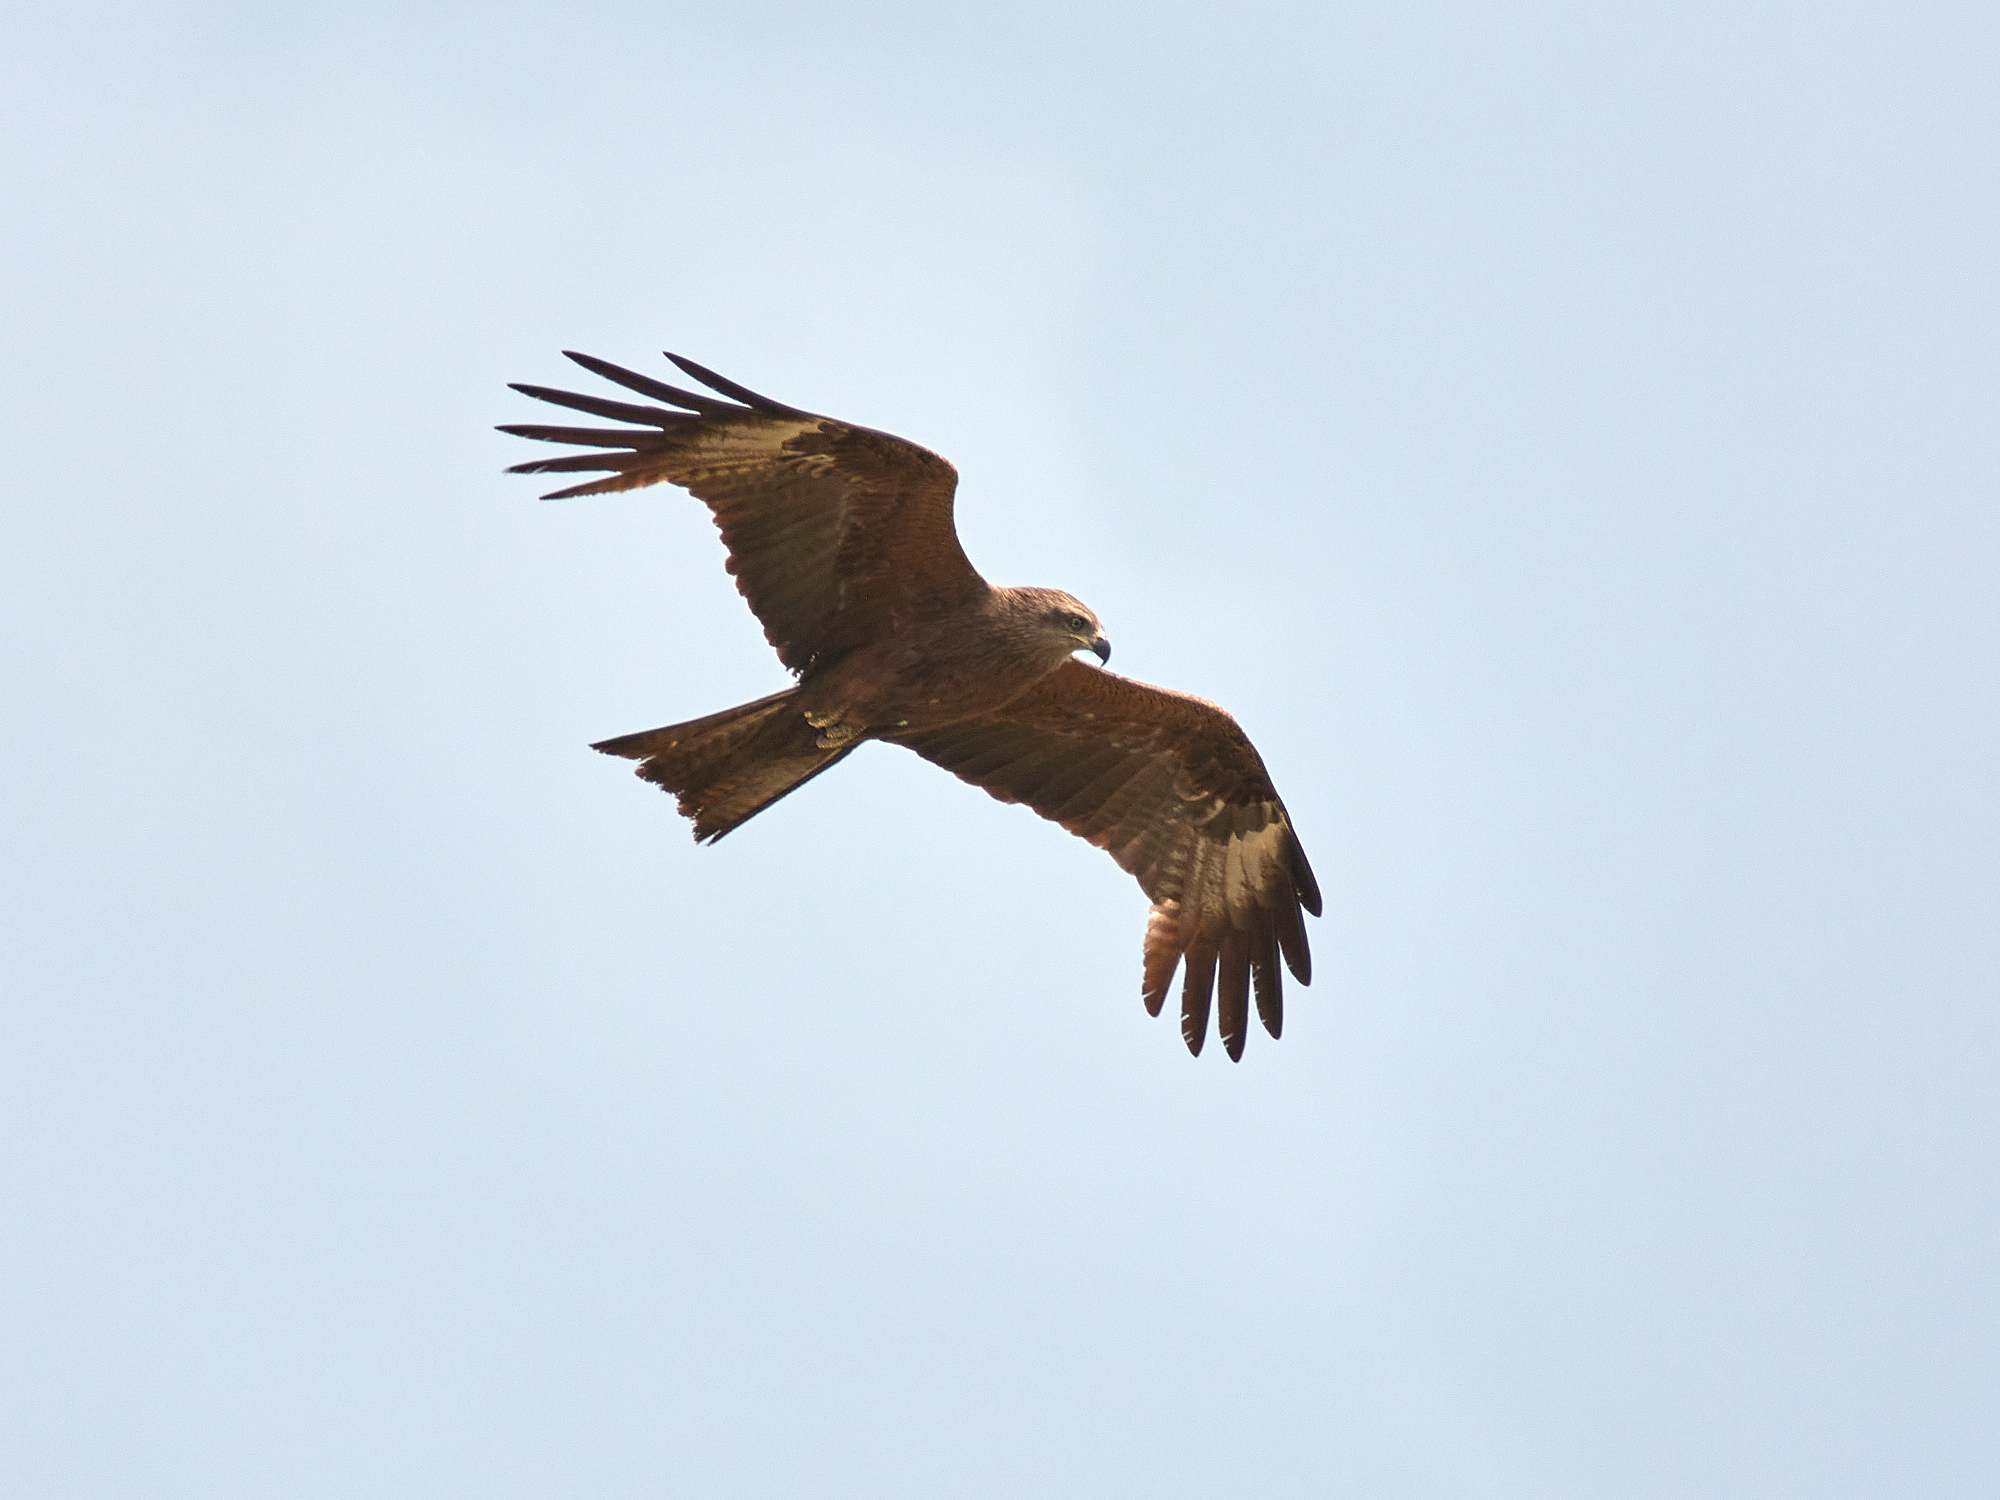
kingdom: Animalia
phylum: Chordata
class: Aves
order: Accipitriformes
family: Accipitridae
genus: Milvus
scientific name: Milvus migrans
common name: Black kite
